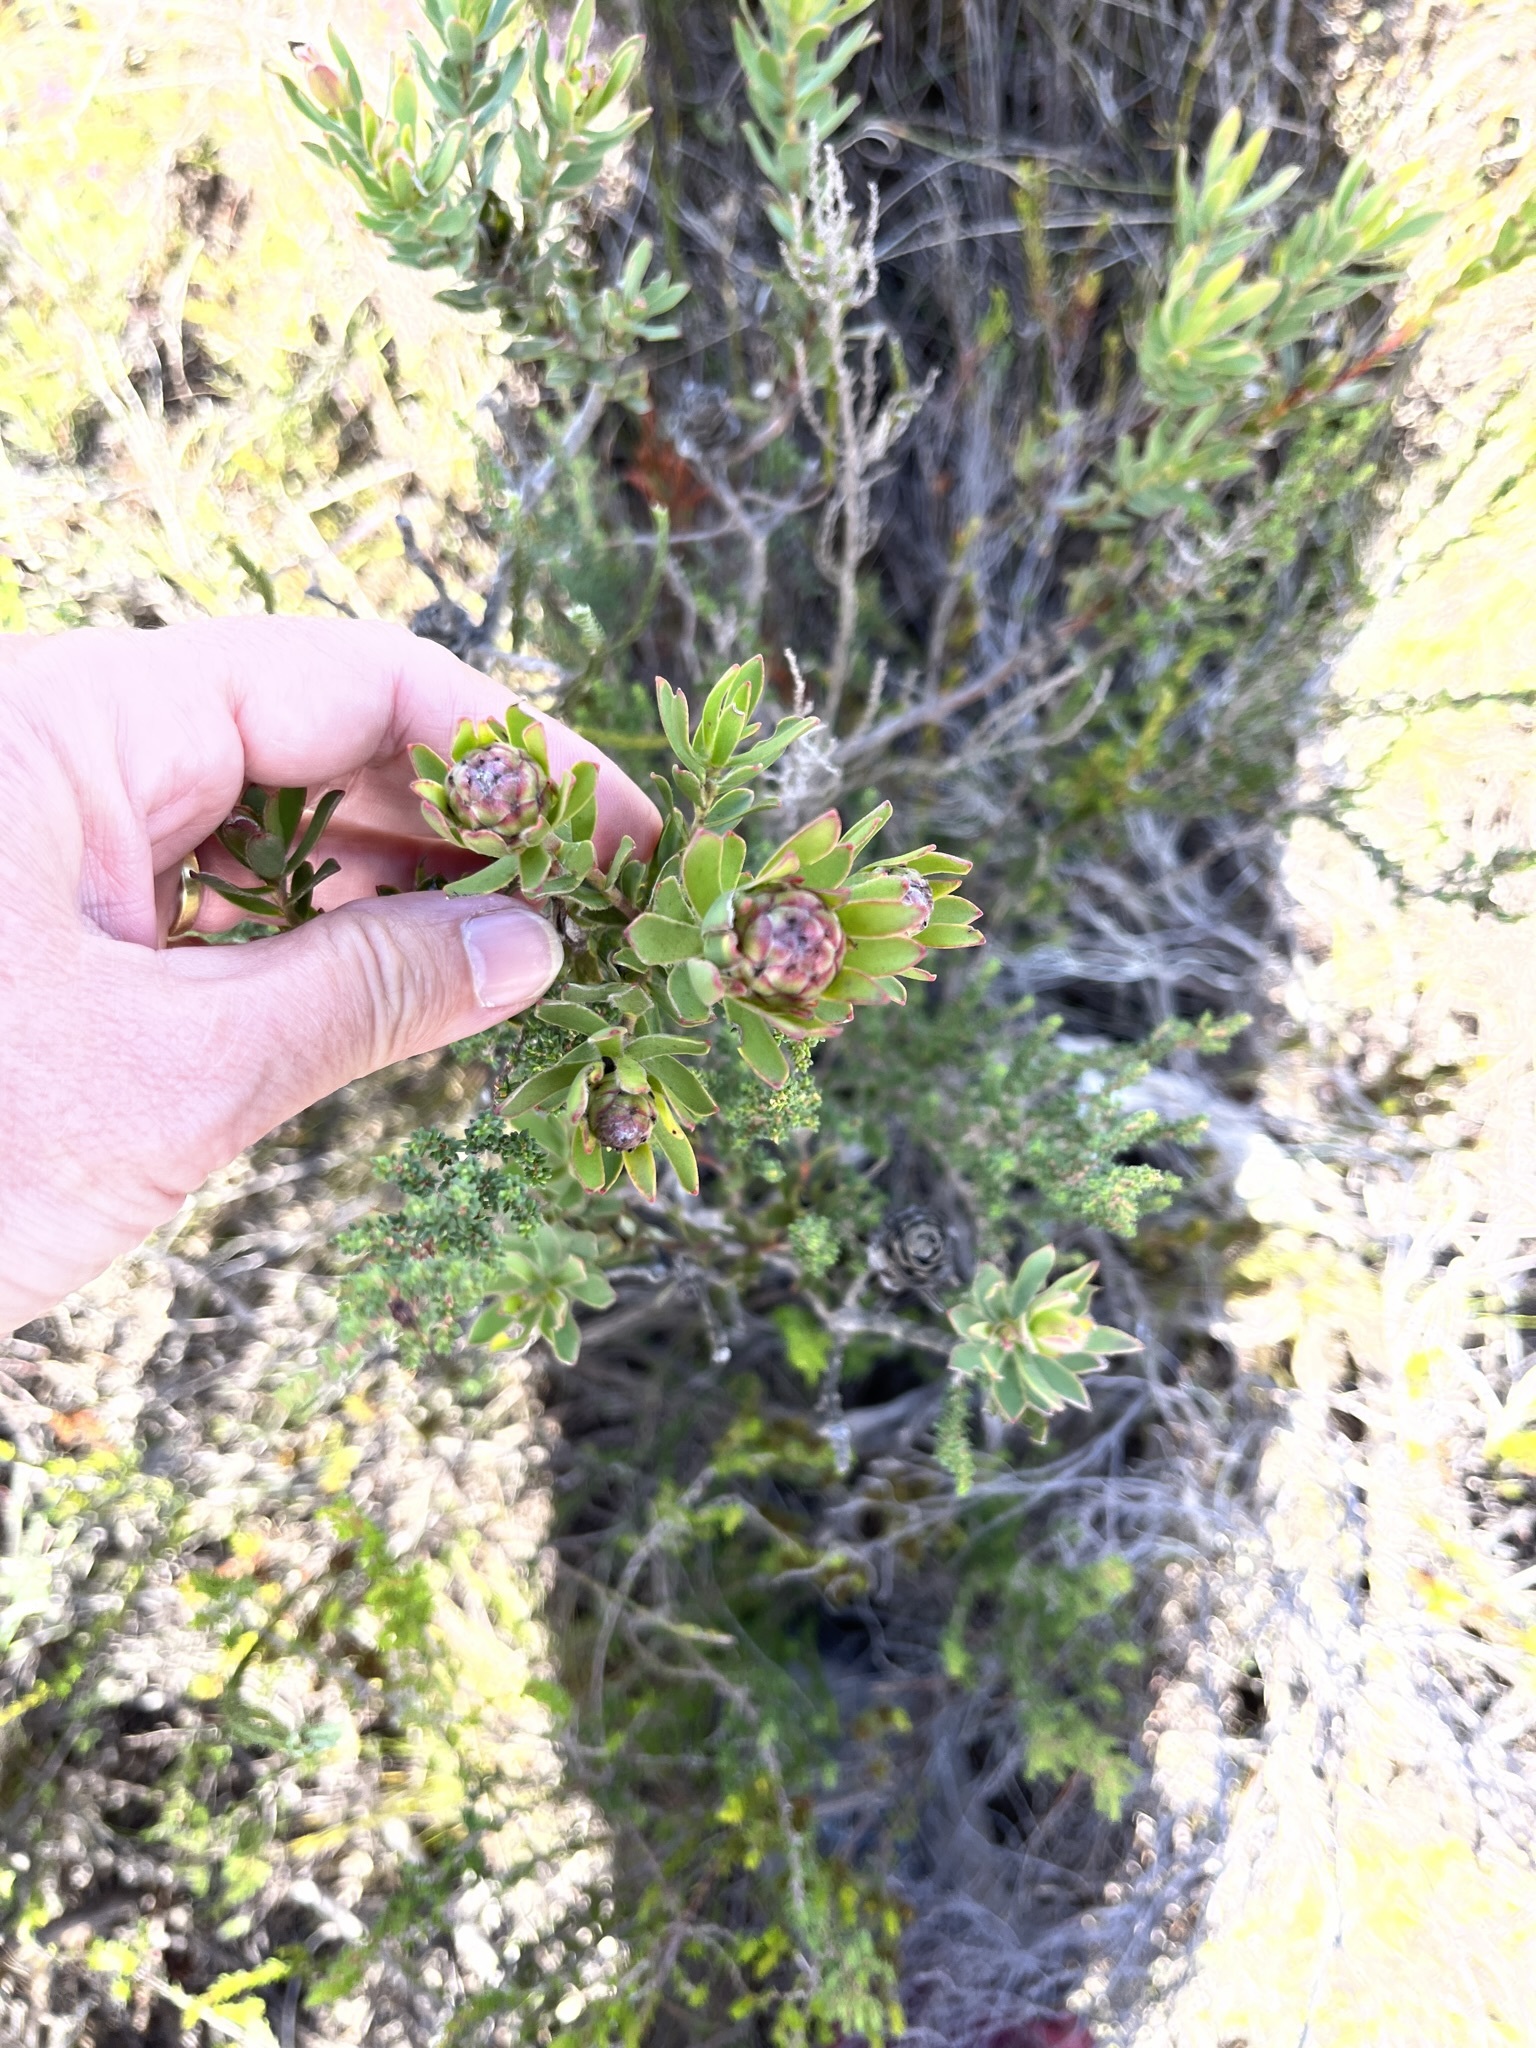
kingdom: Plantae
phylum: Tracheophyta
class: Magnoliopsida
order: Proteales
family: Proteaceae
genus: Leucadendron
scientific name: Leucadendron modestum
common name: Rough-leaf conebush
